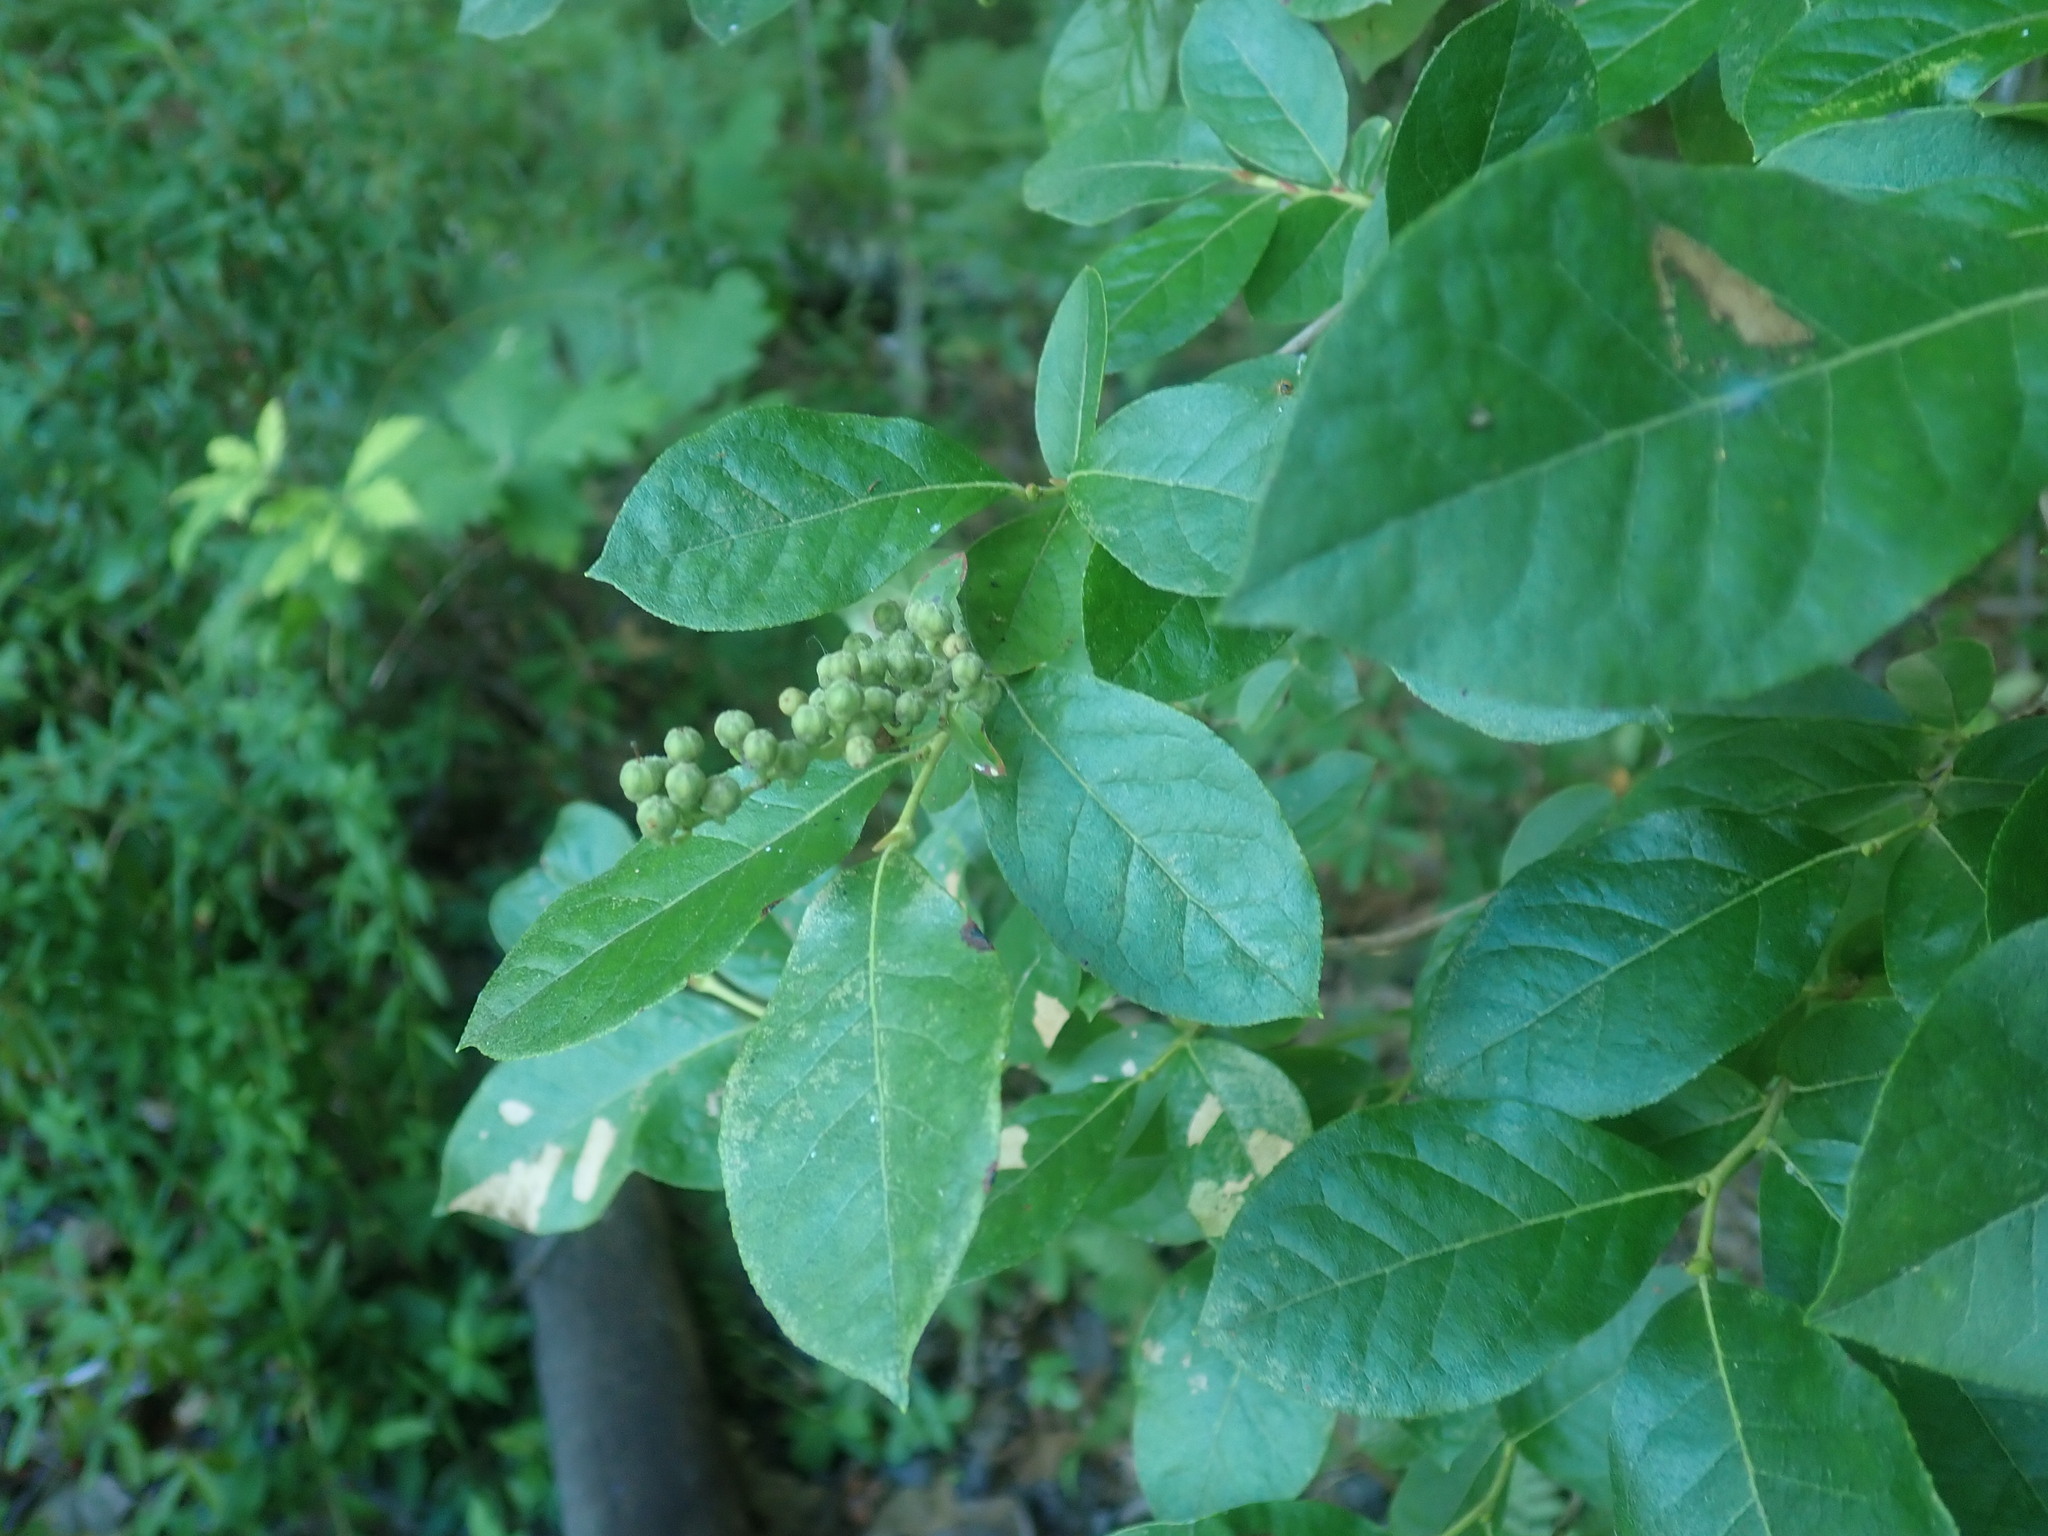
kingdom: Plantae
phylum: Tracheophyta
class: Magnoliopsida
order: Ericales
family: Ericaceae
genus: Lyonia
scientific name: Lyonia ligustrina
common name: Maleberry
